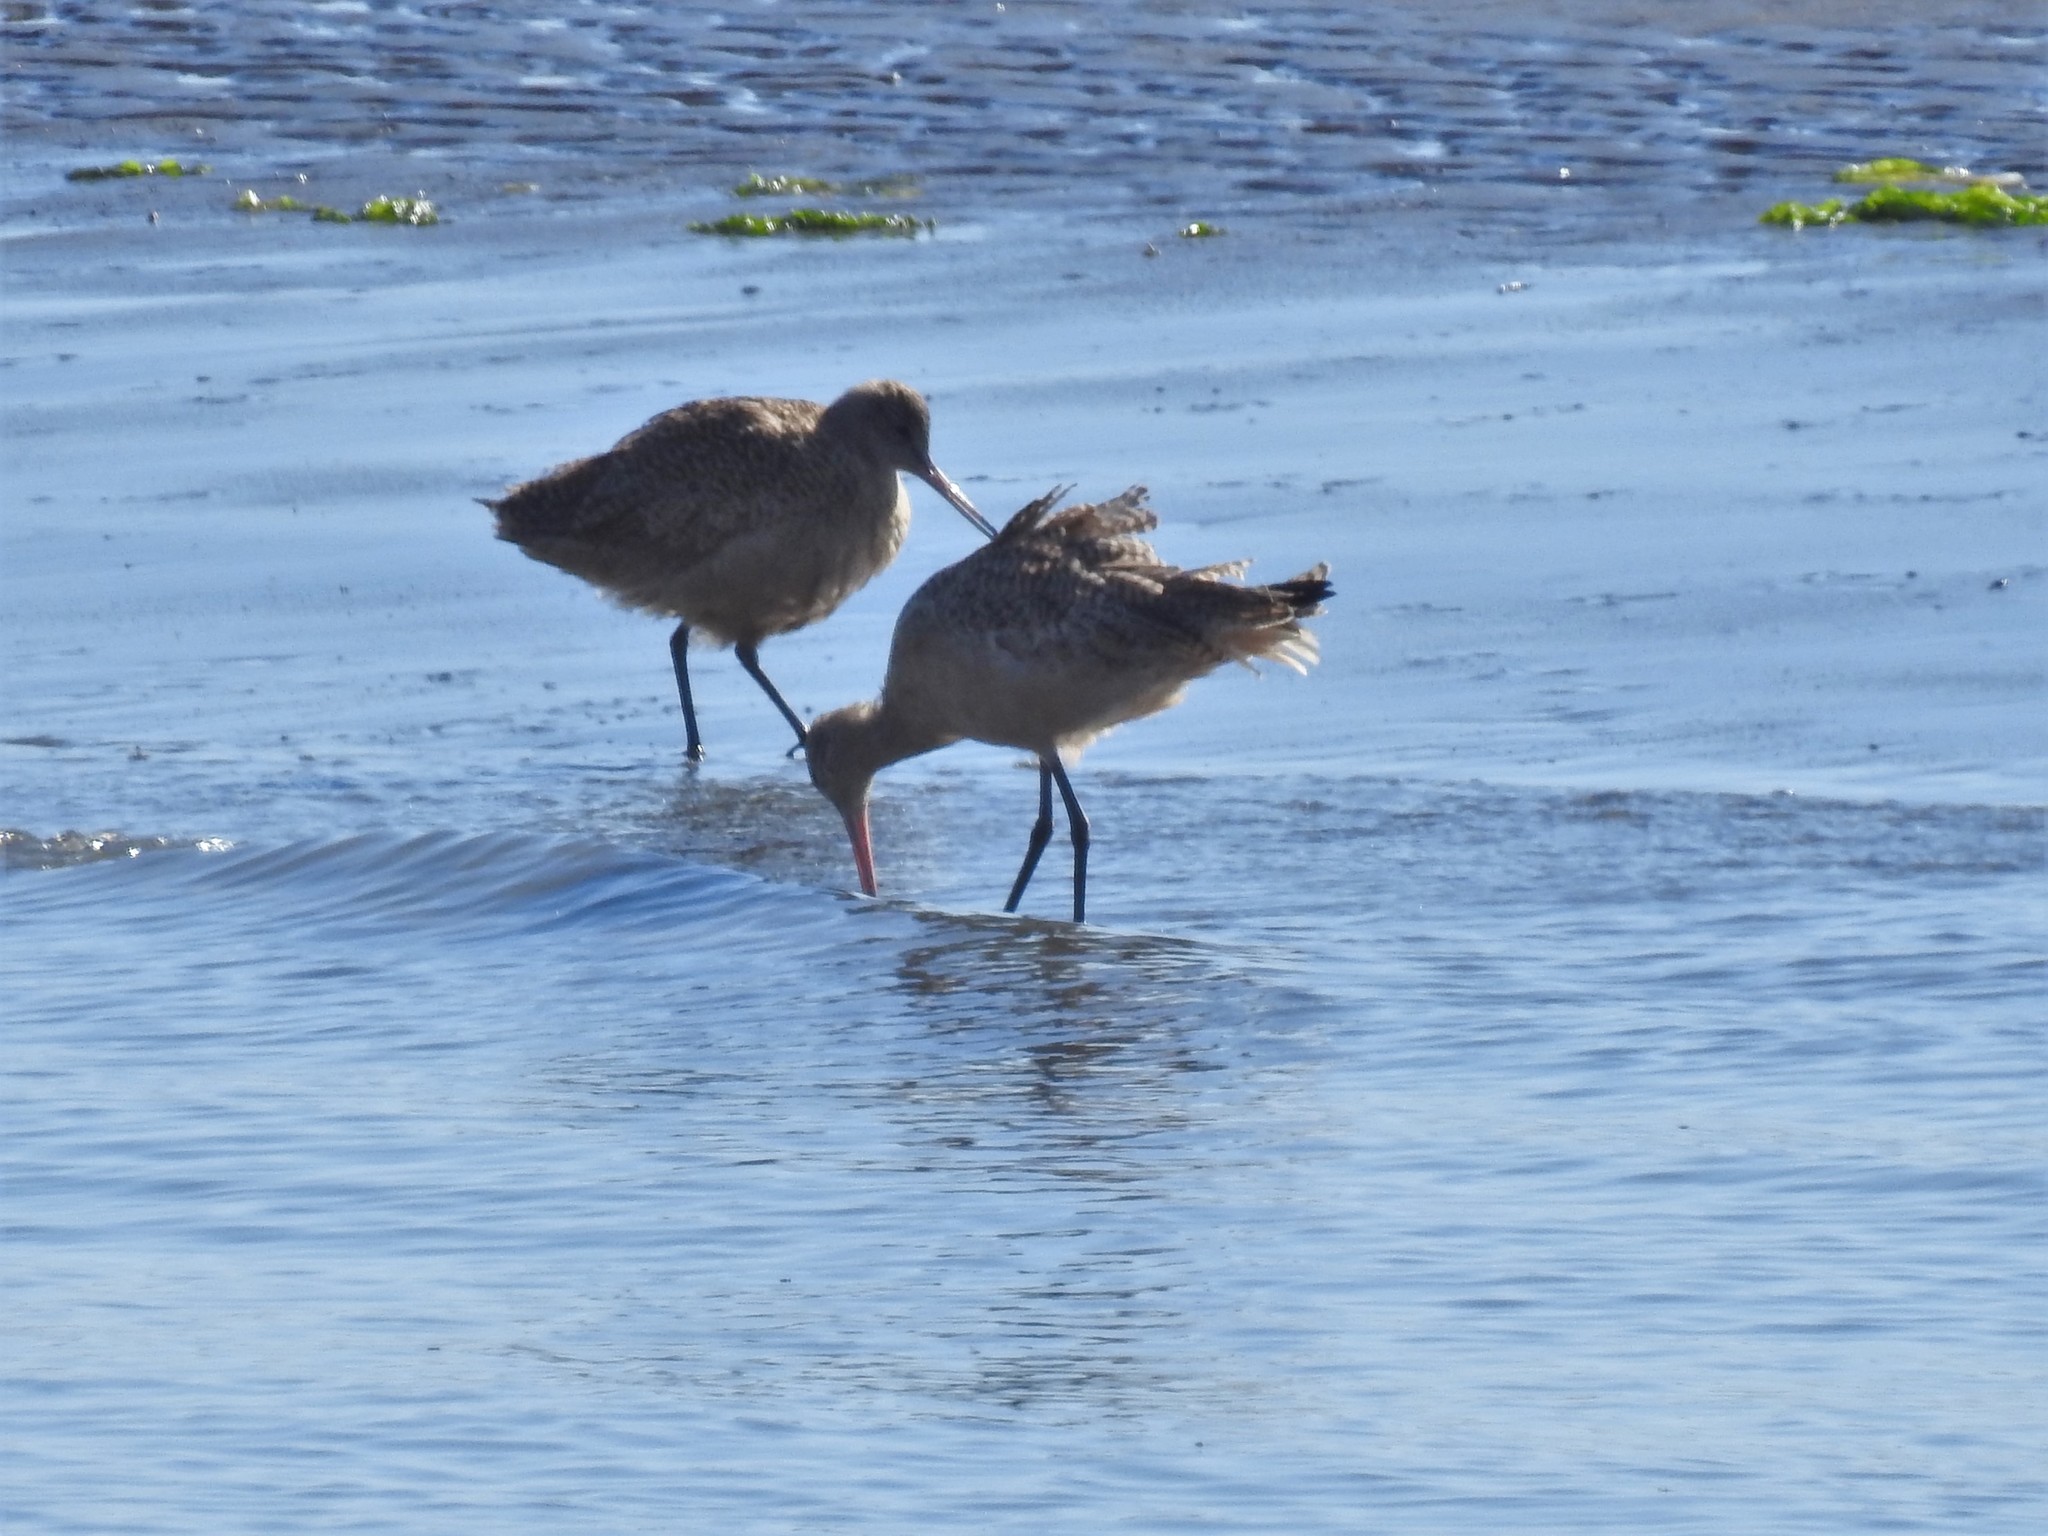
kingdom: Animalia
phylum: Chordata
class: Aves
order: Charadriiformes
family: Scolopacidae
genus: Limosa
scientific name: Limosa fedoa
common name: Marbled godwit
